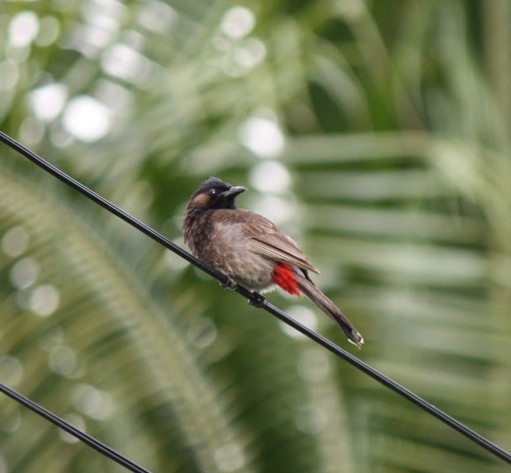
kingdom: Animalia
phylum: Chordata
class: Aves
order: Passeriformes
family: Pycnonotidae
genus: Pycnonotus
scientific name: Pycnonotus cafer
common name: Red-vented bulbul
